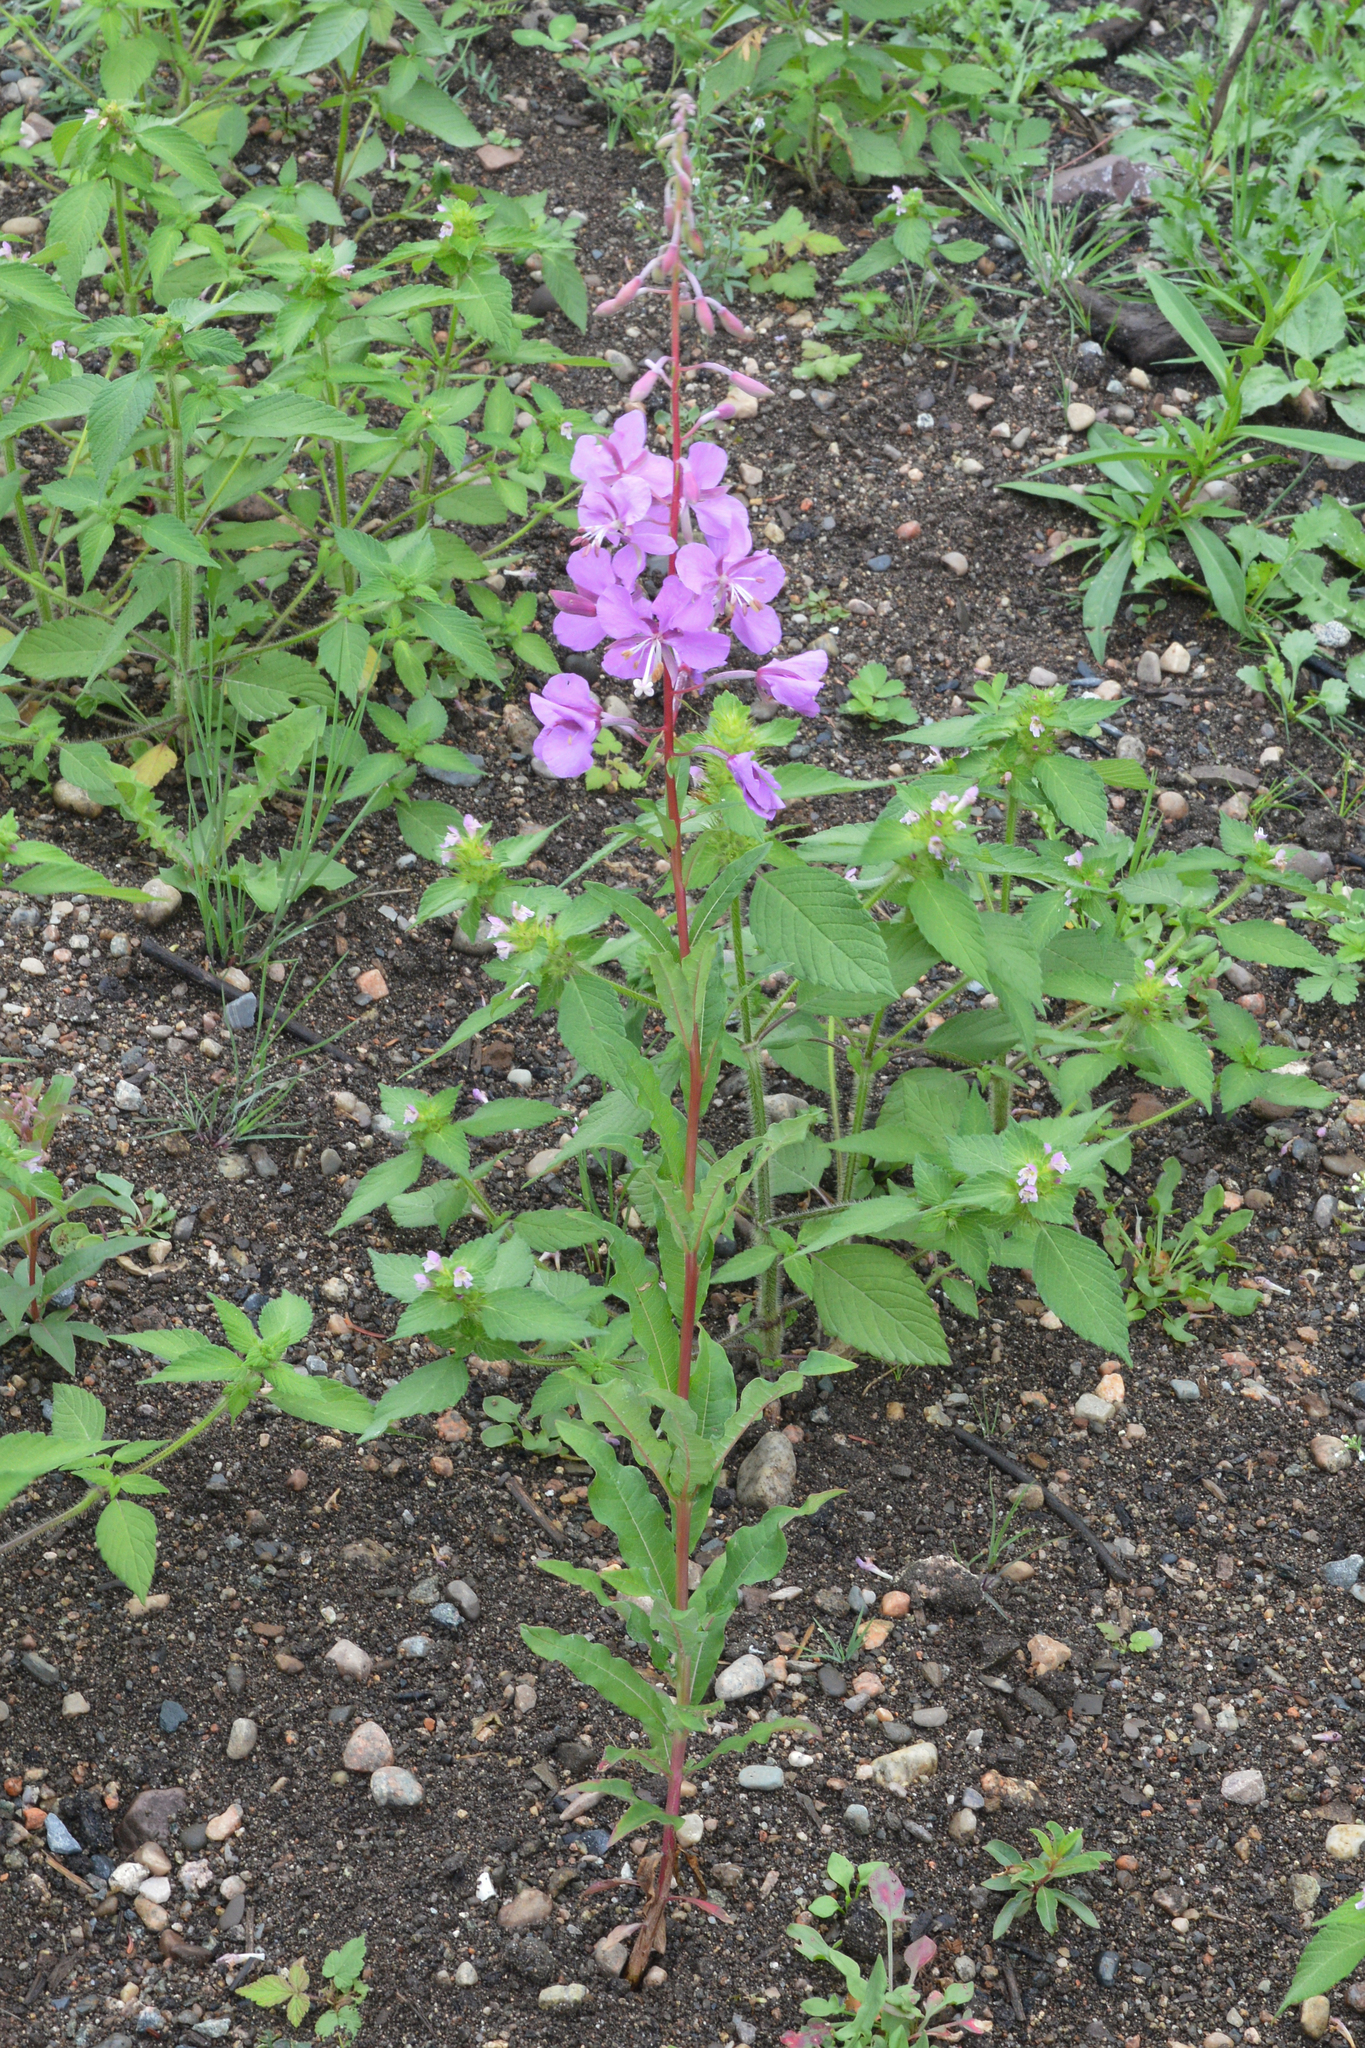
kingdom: Plantae
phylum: Tracheophyta
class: Magnoliopsida
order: Myrtales
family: Onagraceae
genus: Chamaenerion
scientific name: Chamaenerion angustifolium
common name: Fireweed
